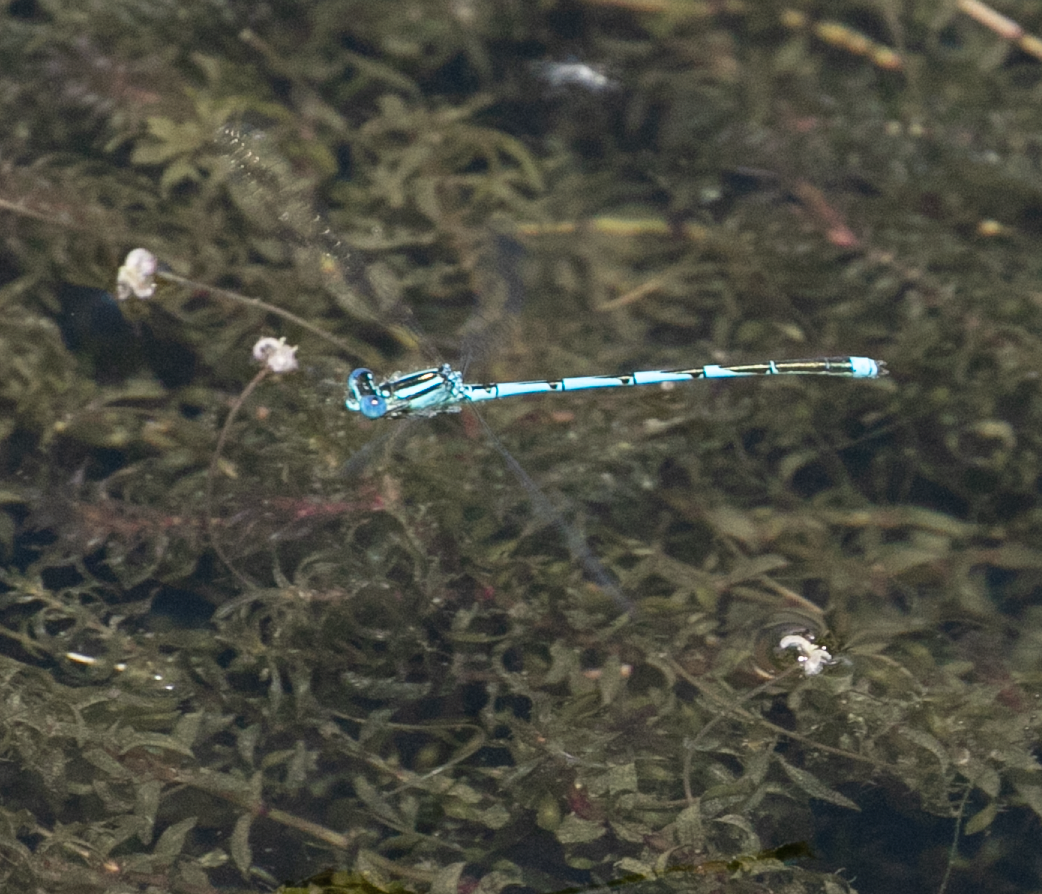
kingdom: Animalia
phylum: Arthropoda
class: Insecta
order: Odonata
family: Coenagrionidae
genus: Erythromma
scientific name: Erythromma lindenii
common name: Blue-eye
